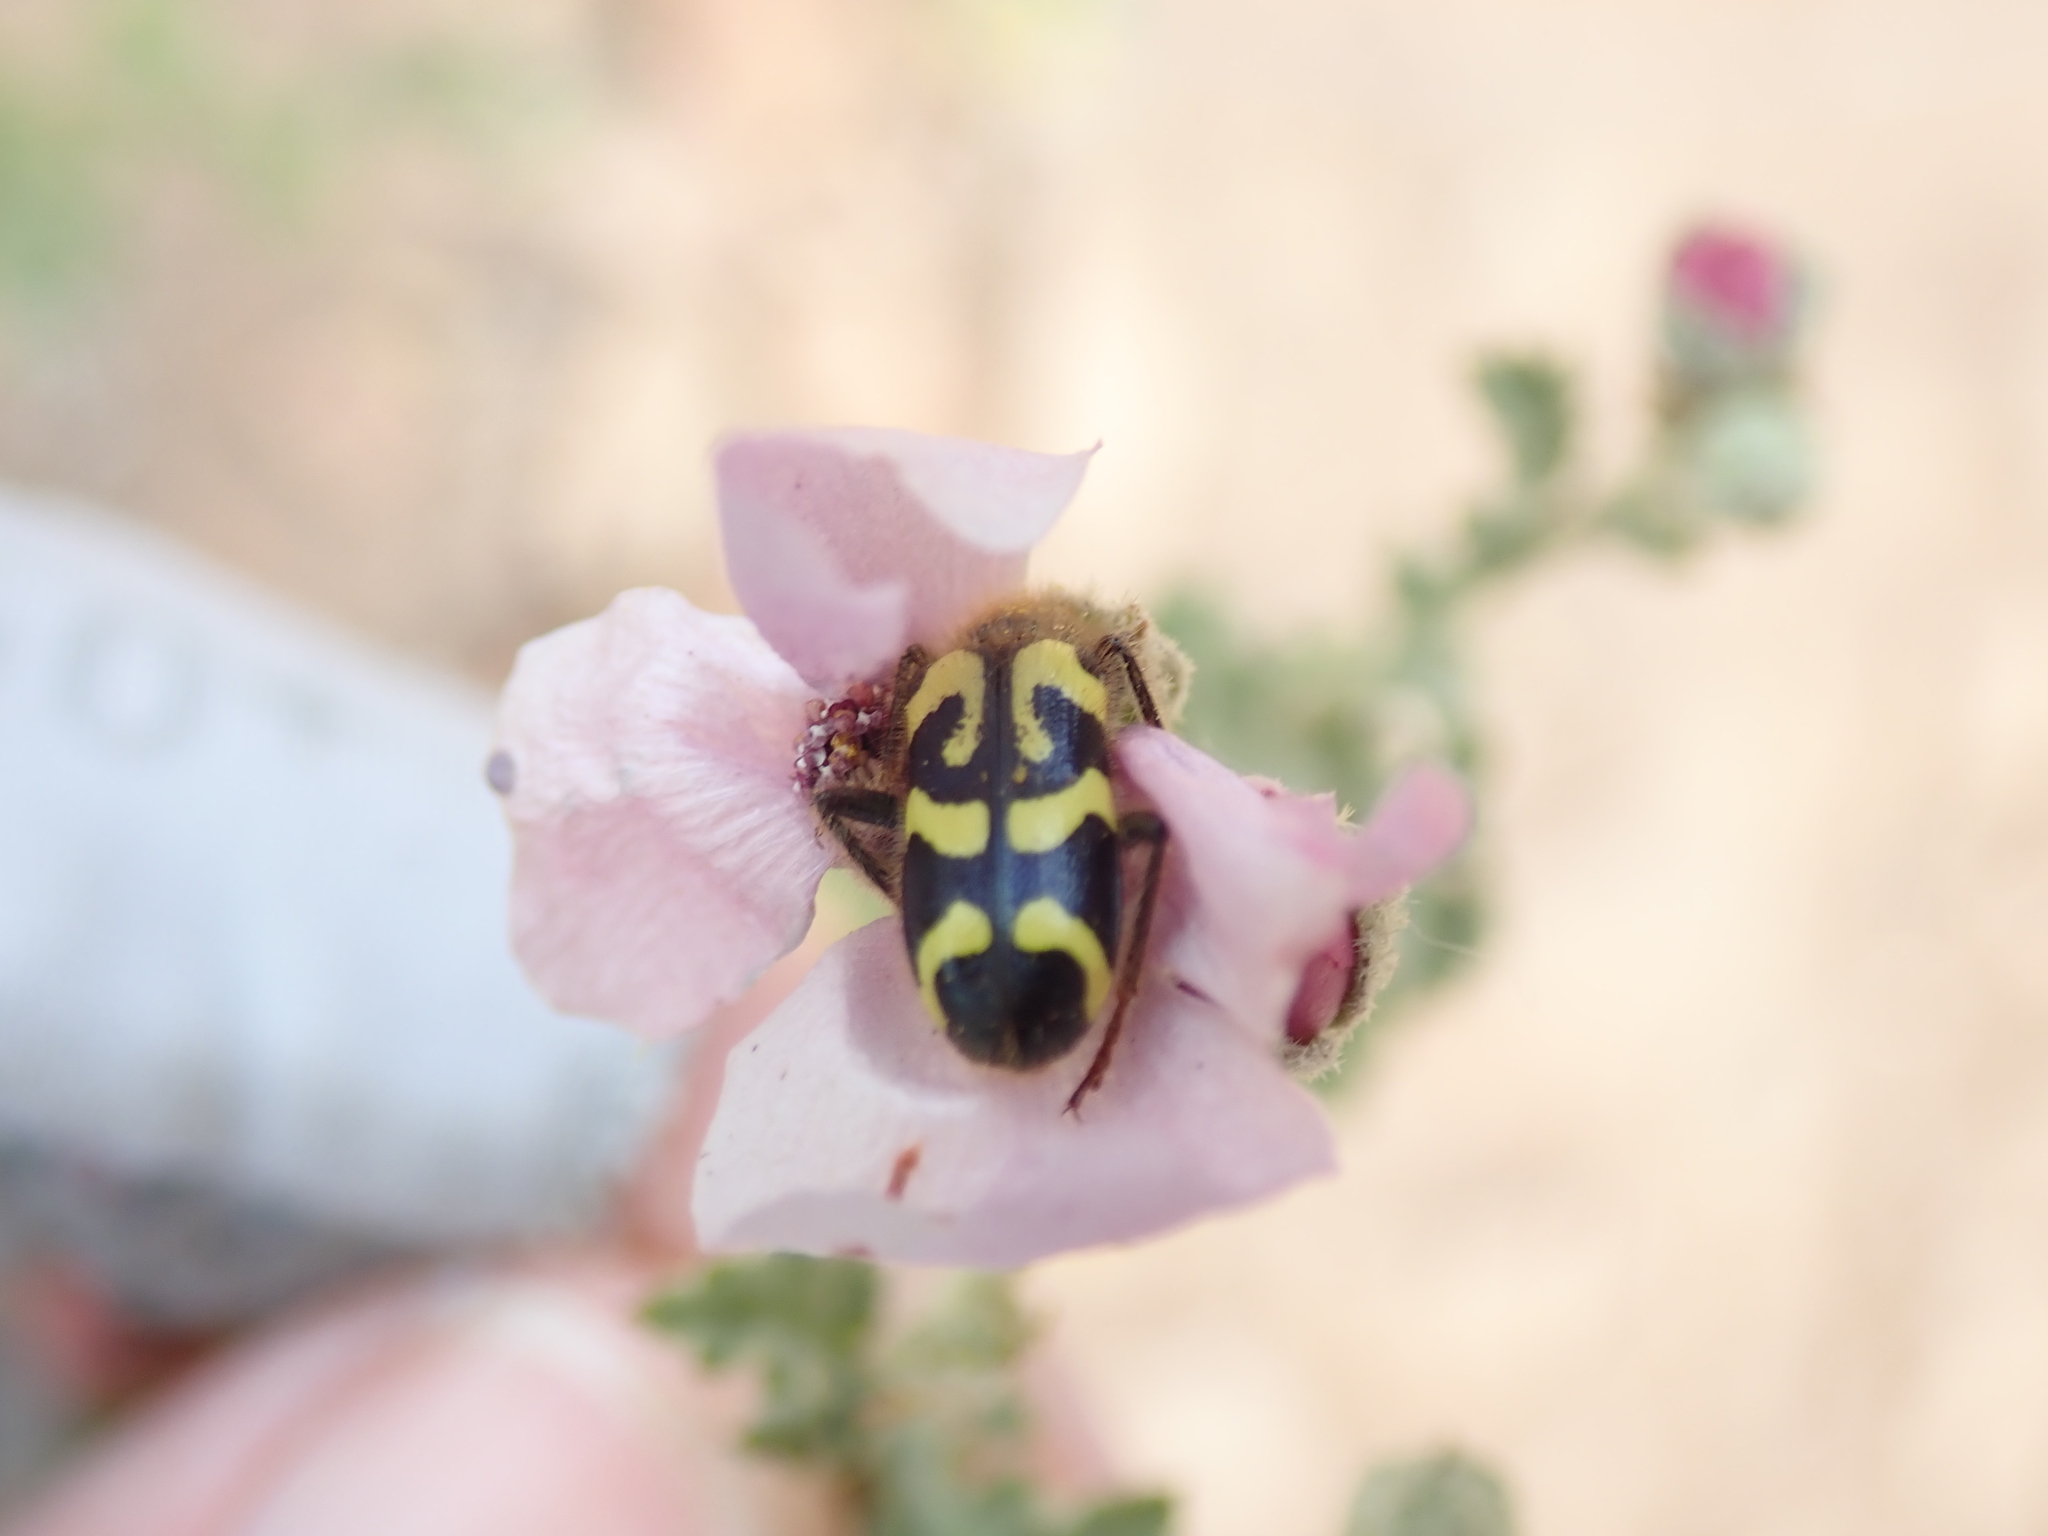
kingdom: Animalia
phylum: Arthropoda
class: Insecta
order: Coleoptera
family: Cleridae
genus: Trichodes
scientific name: Trichodes ornatus
